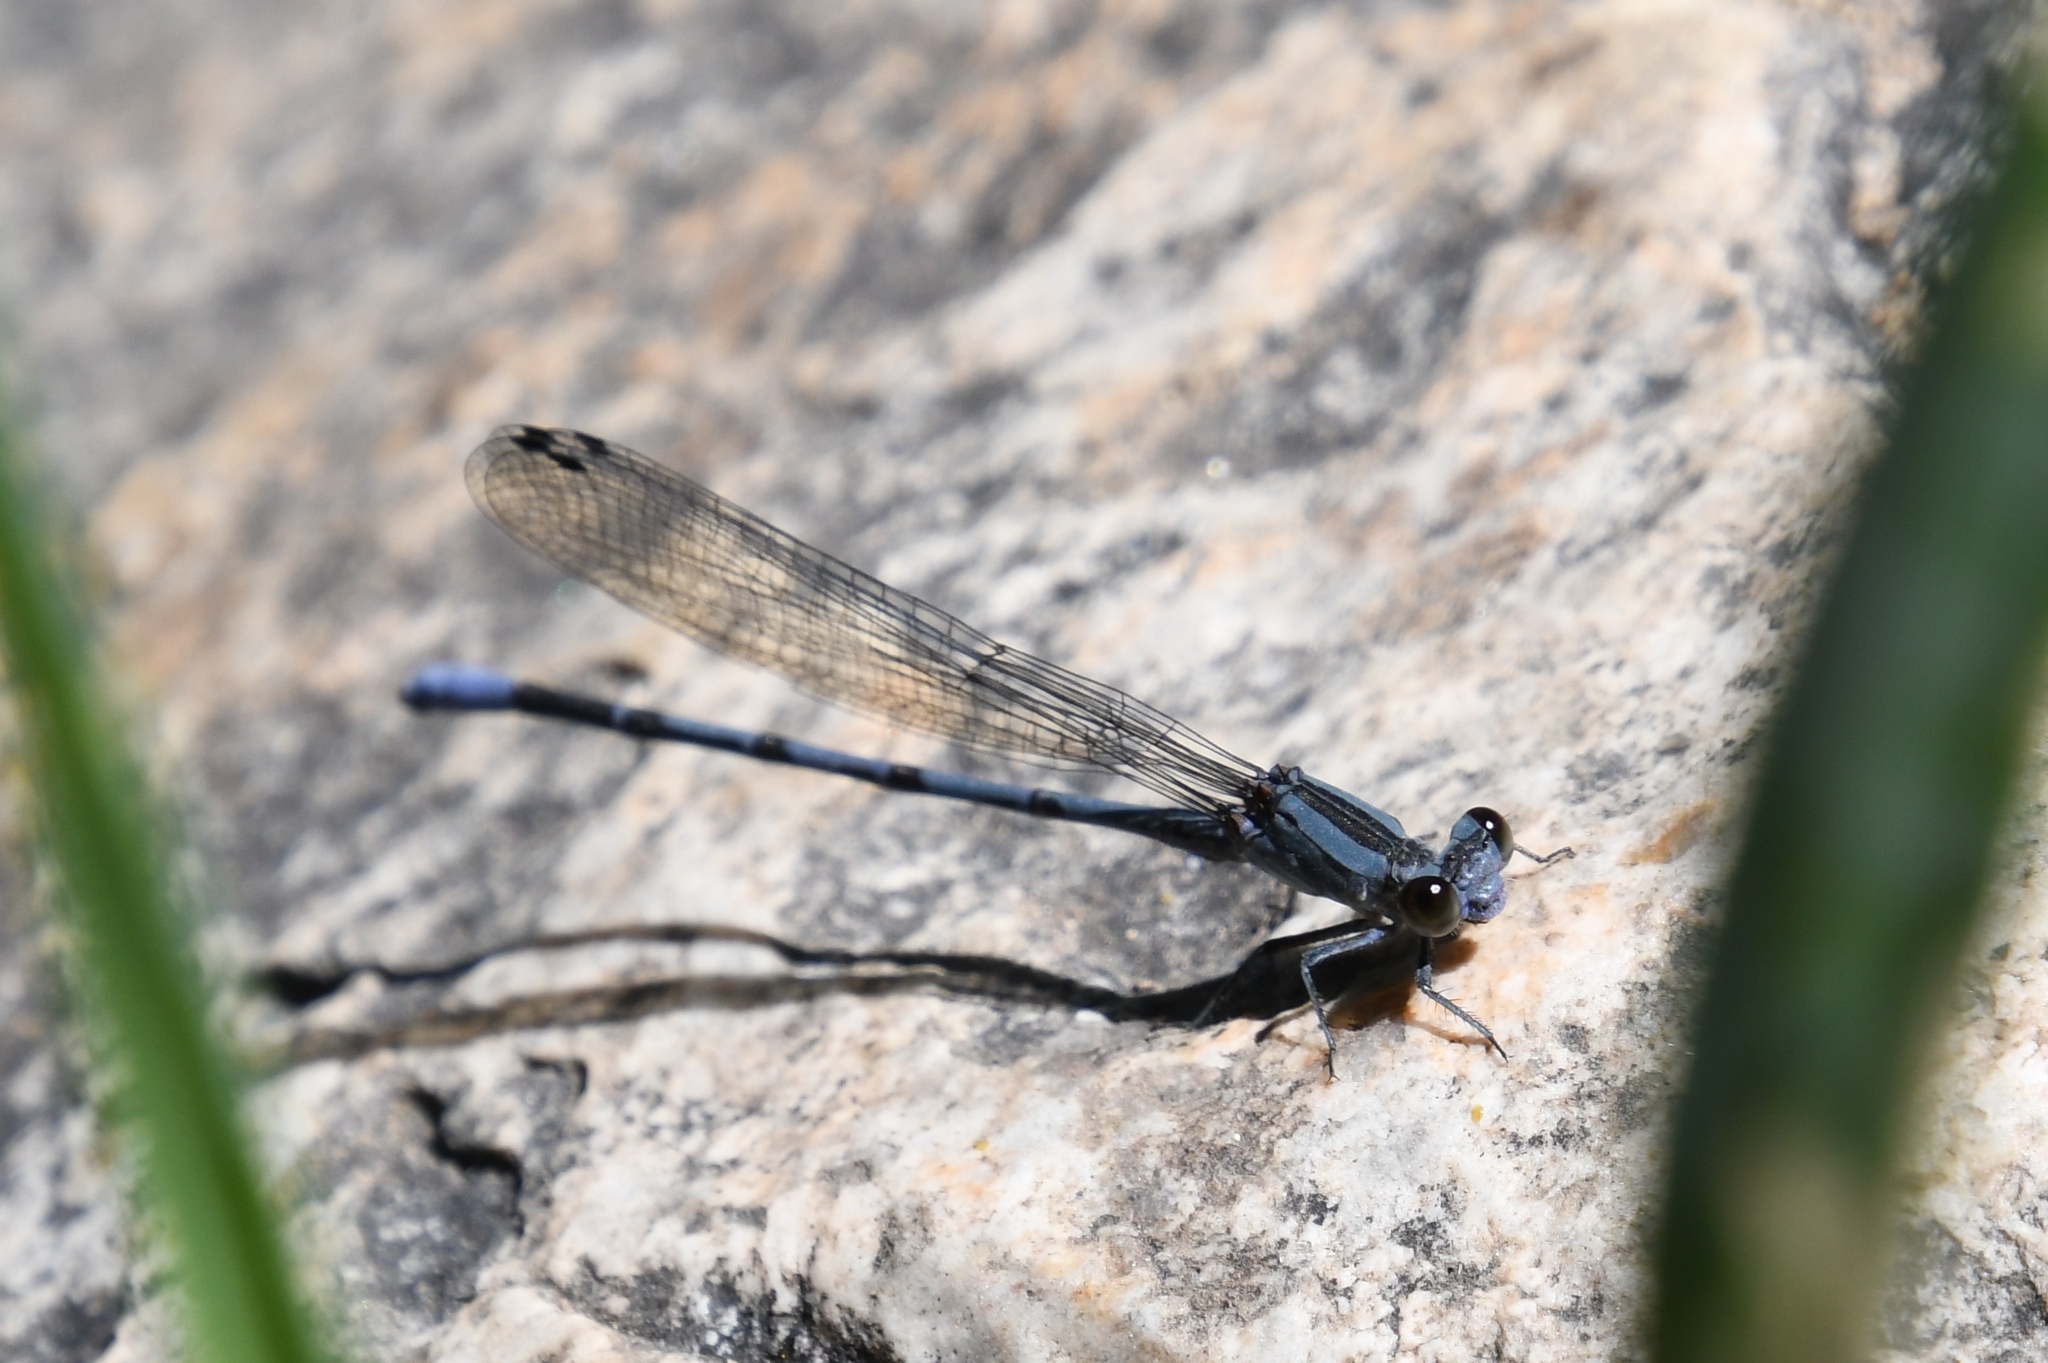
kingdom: Animalia
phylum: Arthropoda
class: Insecta
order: Odonata
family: Coenagrionidae
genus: Argia
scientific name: Argia funebris
